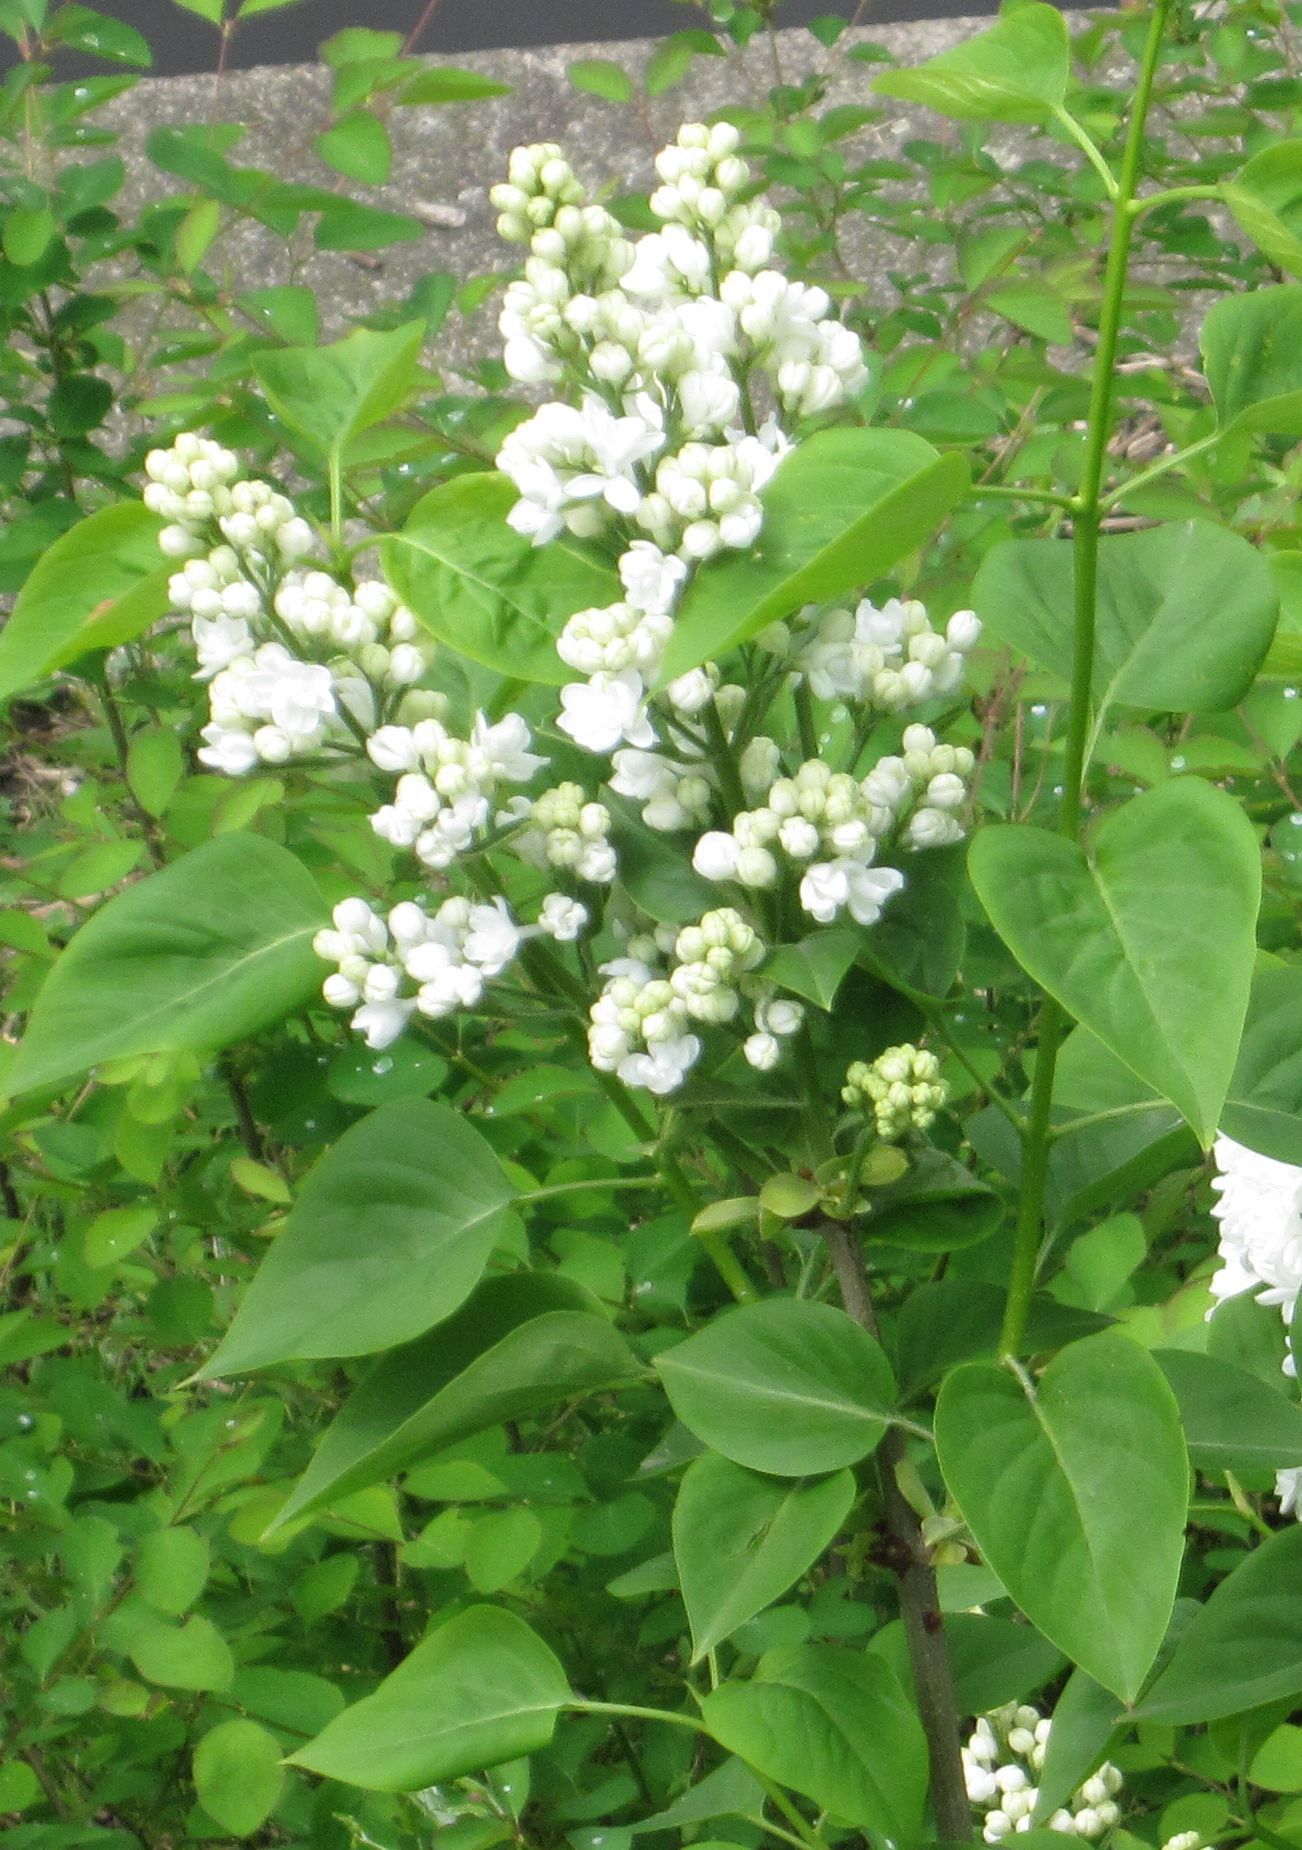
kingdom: Plantae
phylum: Tracheophyta
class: Magnoliopsida
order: Lamiales
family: Oleaceae
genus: Syringa
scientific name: Syringa vulgaris
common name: Common lilac
